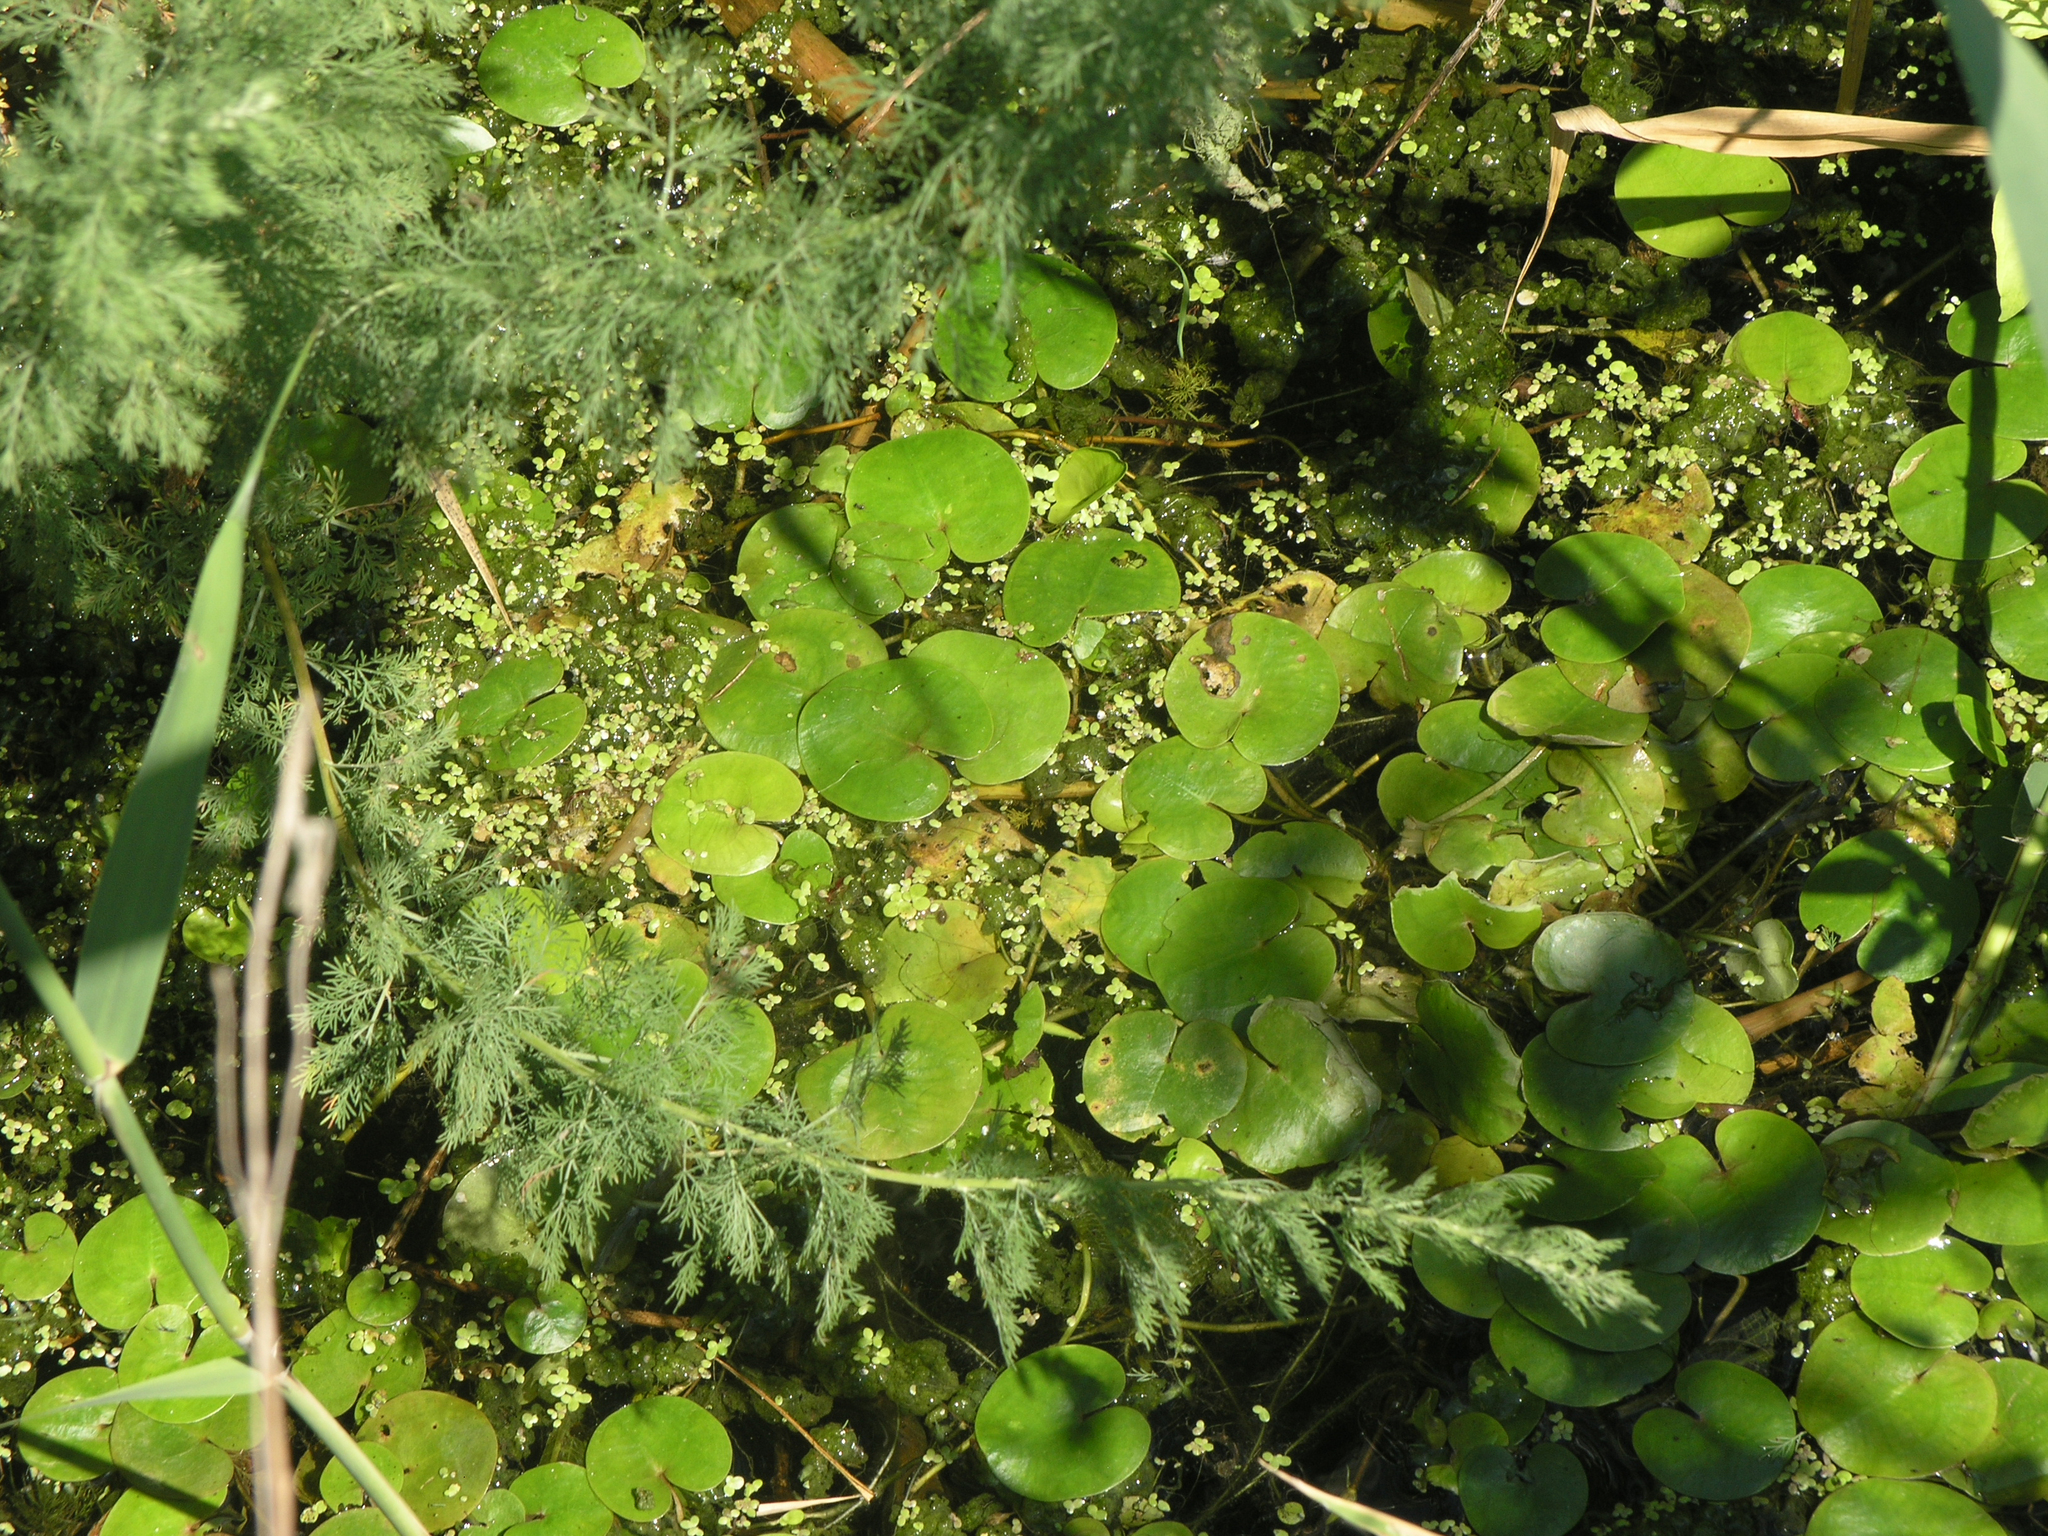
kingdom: Plantae
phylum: Tracheophyta
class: Liliopsida
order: Alismatales
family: Hydrocharitaceae
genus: Hydrocharis
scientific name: Hydrocharis morsus-ranae
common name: Frogbit
